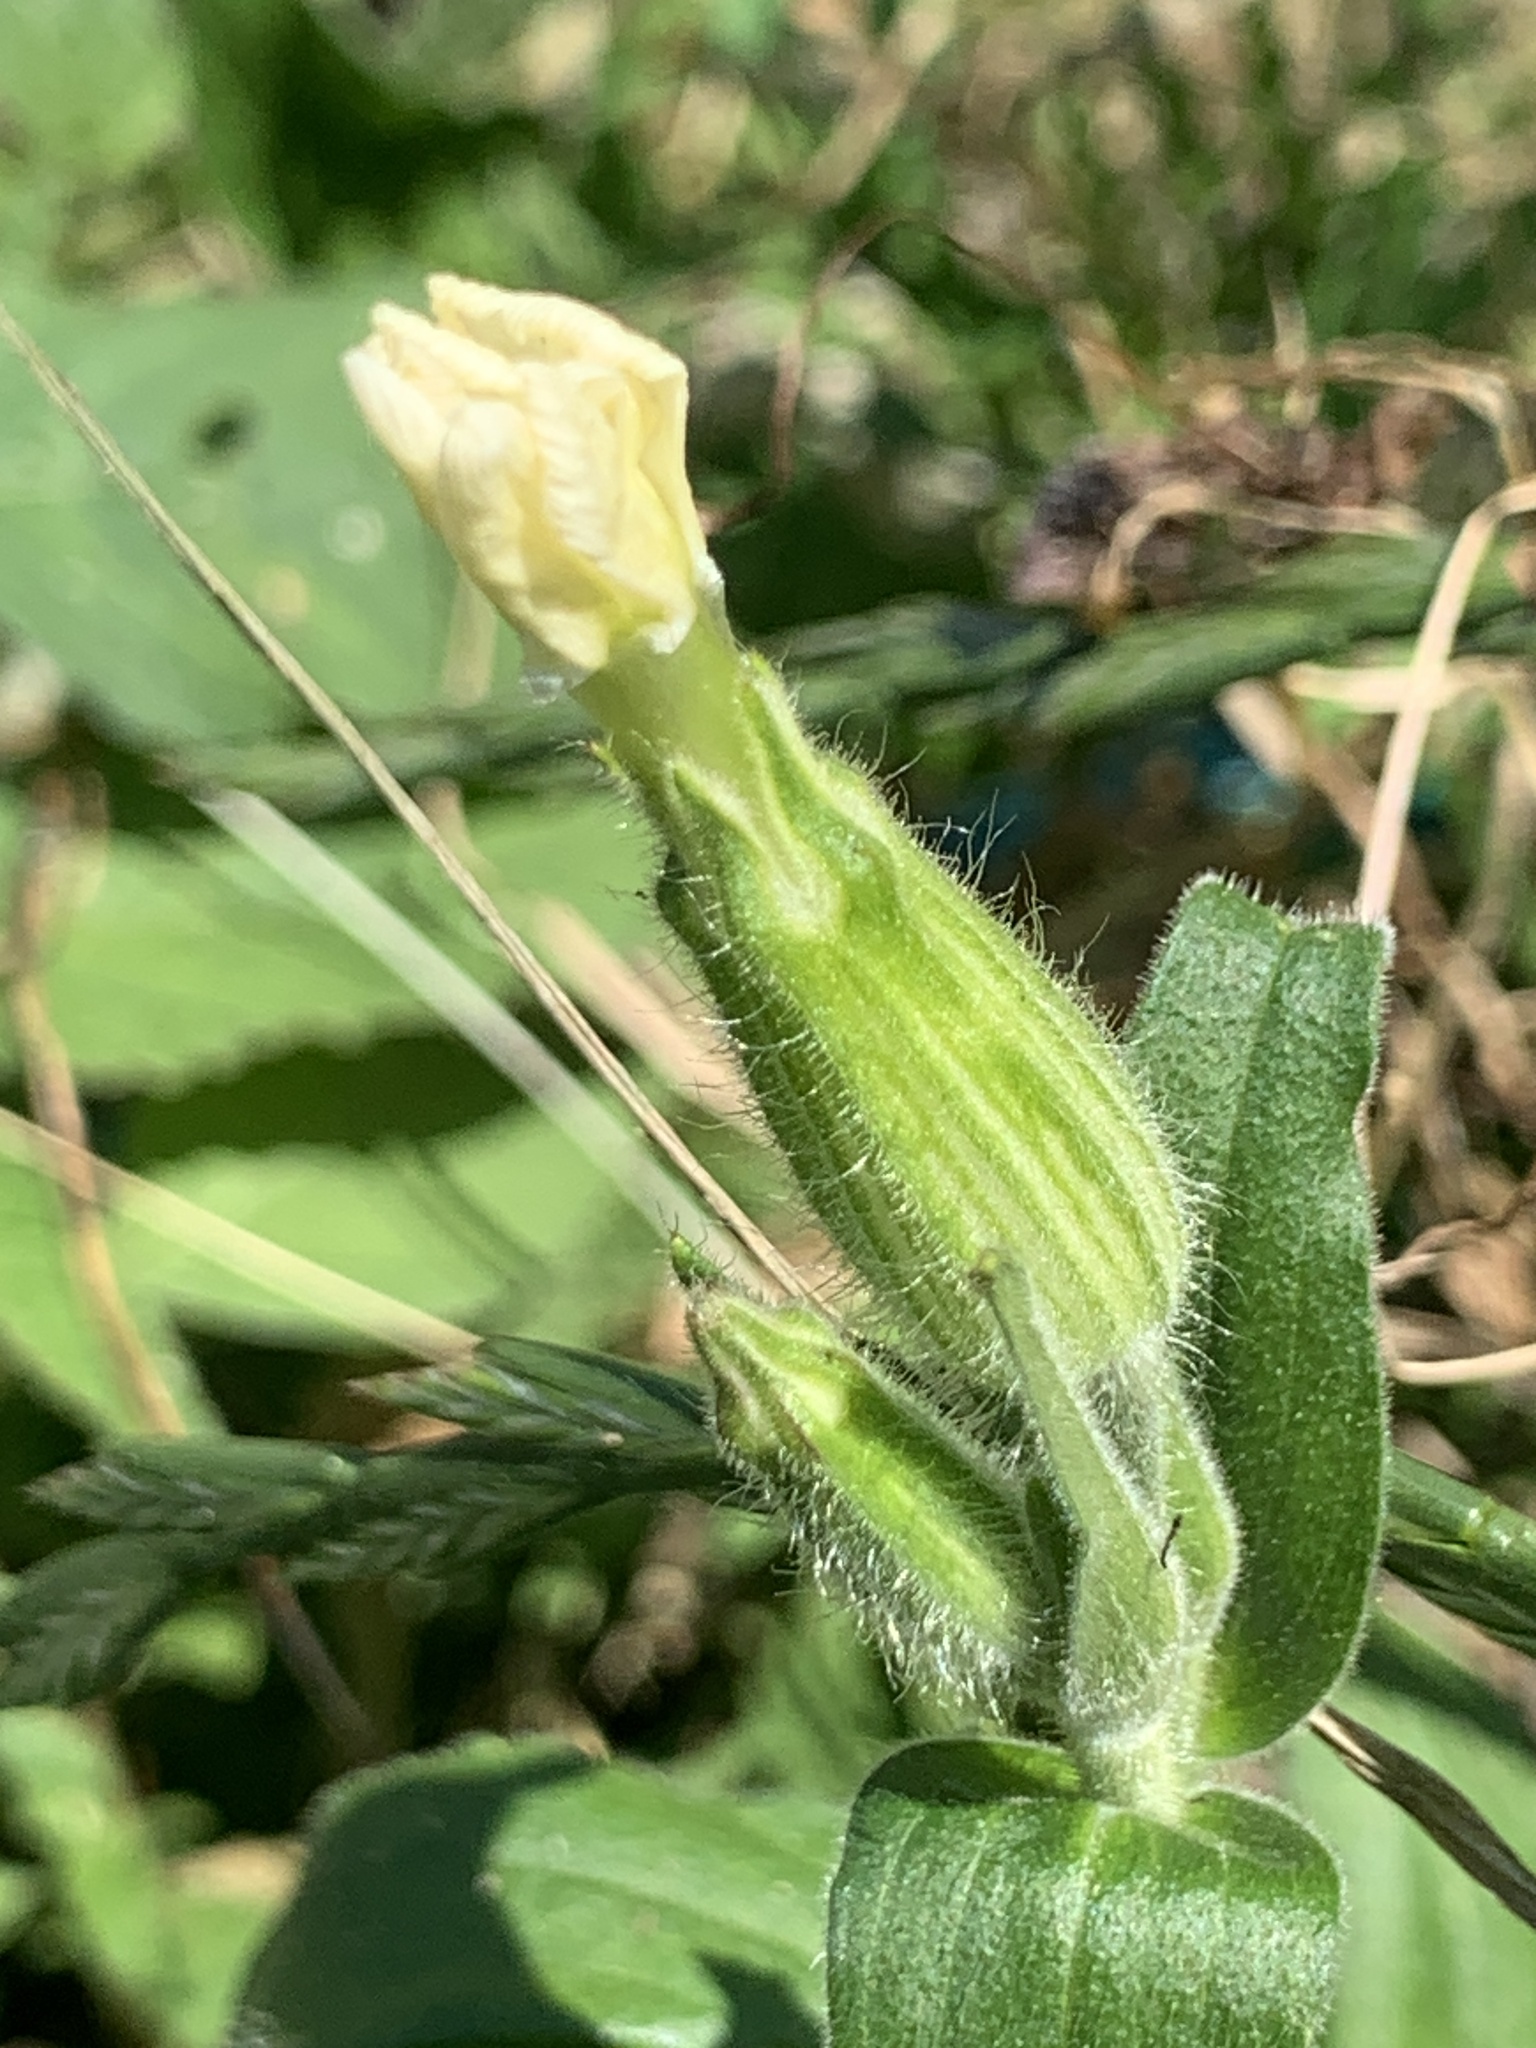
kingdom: Plantae
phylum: Tracheophyta
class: Magnoliopsida
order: Caryophyllales
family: Caryophyllaceae
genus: Silene
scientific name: Silene latifolia
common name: White campion
